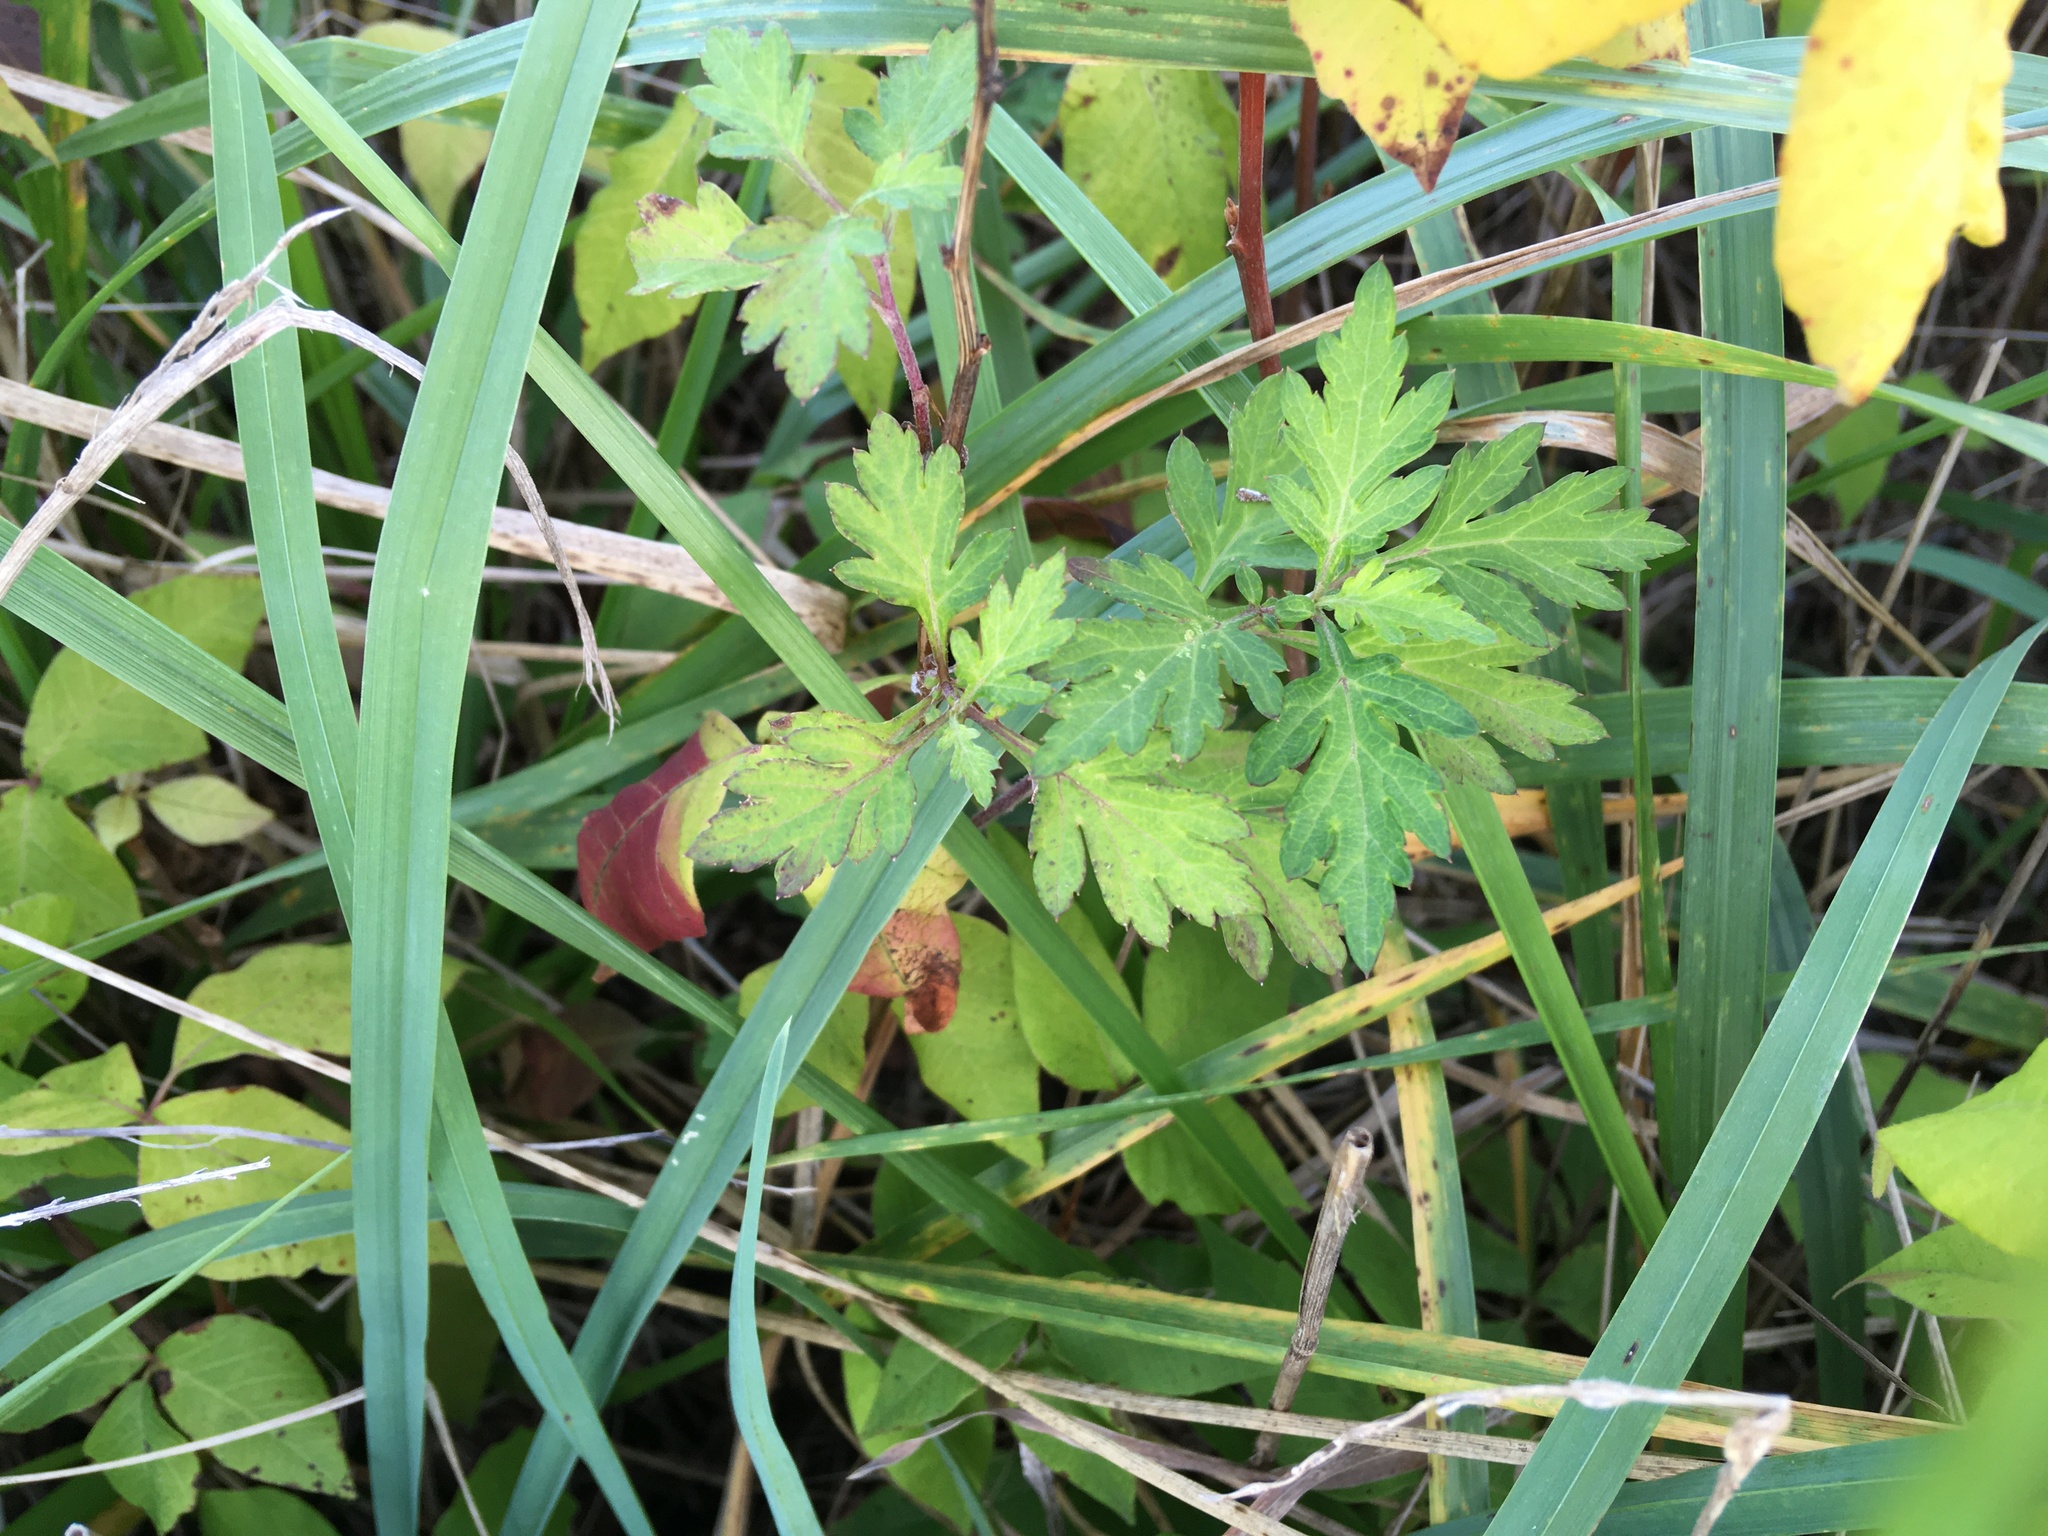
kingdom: Plantae
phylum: Tracheophyta
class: Magnoliopsida
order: Asterales
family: Asteraceae
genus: Artemisia
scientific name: Artemisia vulgaris
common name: Mugwort
